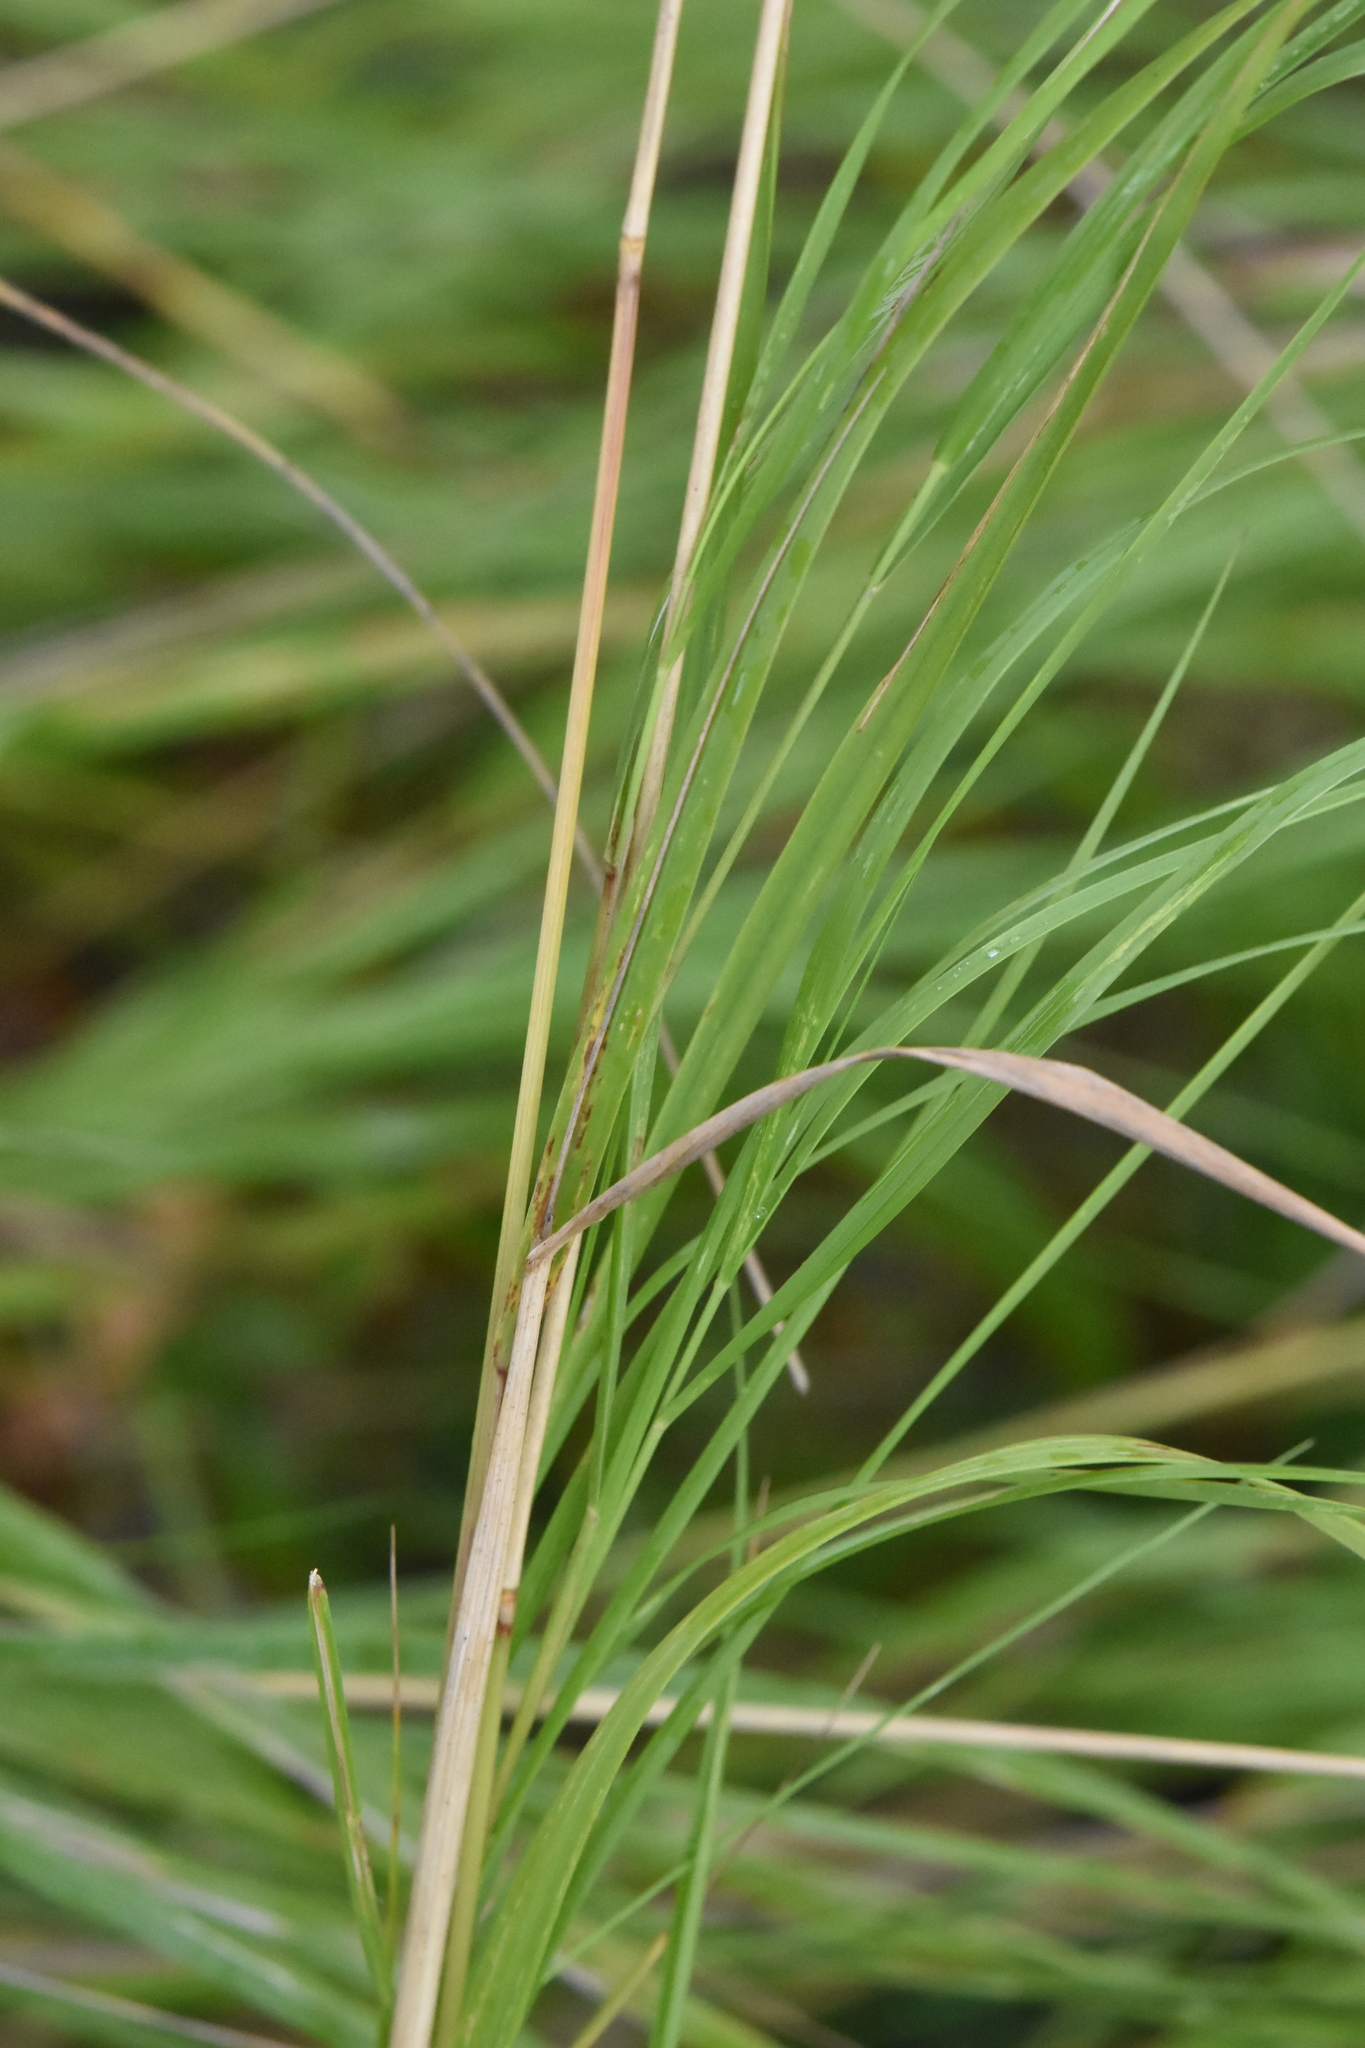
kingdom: Plantae
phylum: Tracheophyta
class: Liliopsida
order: Poales
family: Poaceae
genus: Calamagrostis
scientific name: Calamagrostis canescens
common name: Purple small-reed
